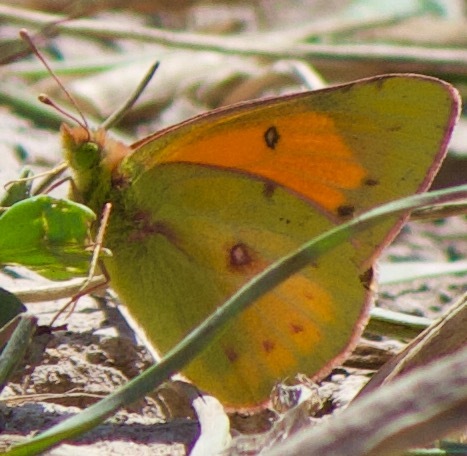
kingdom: Animalia
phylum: Arthropoda
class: Insecta
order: Lepidoptera
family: Pieridae
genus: Colias
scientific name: Colias vauthierii
